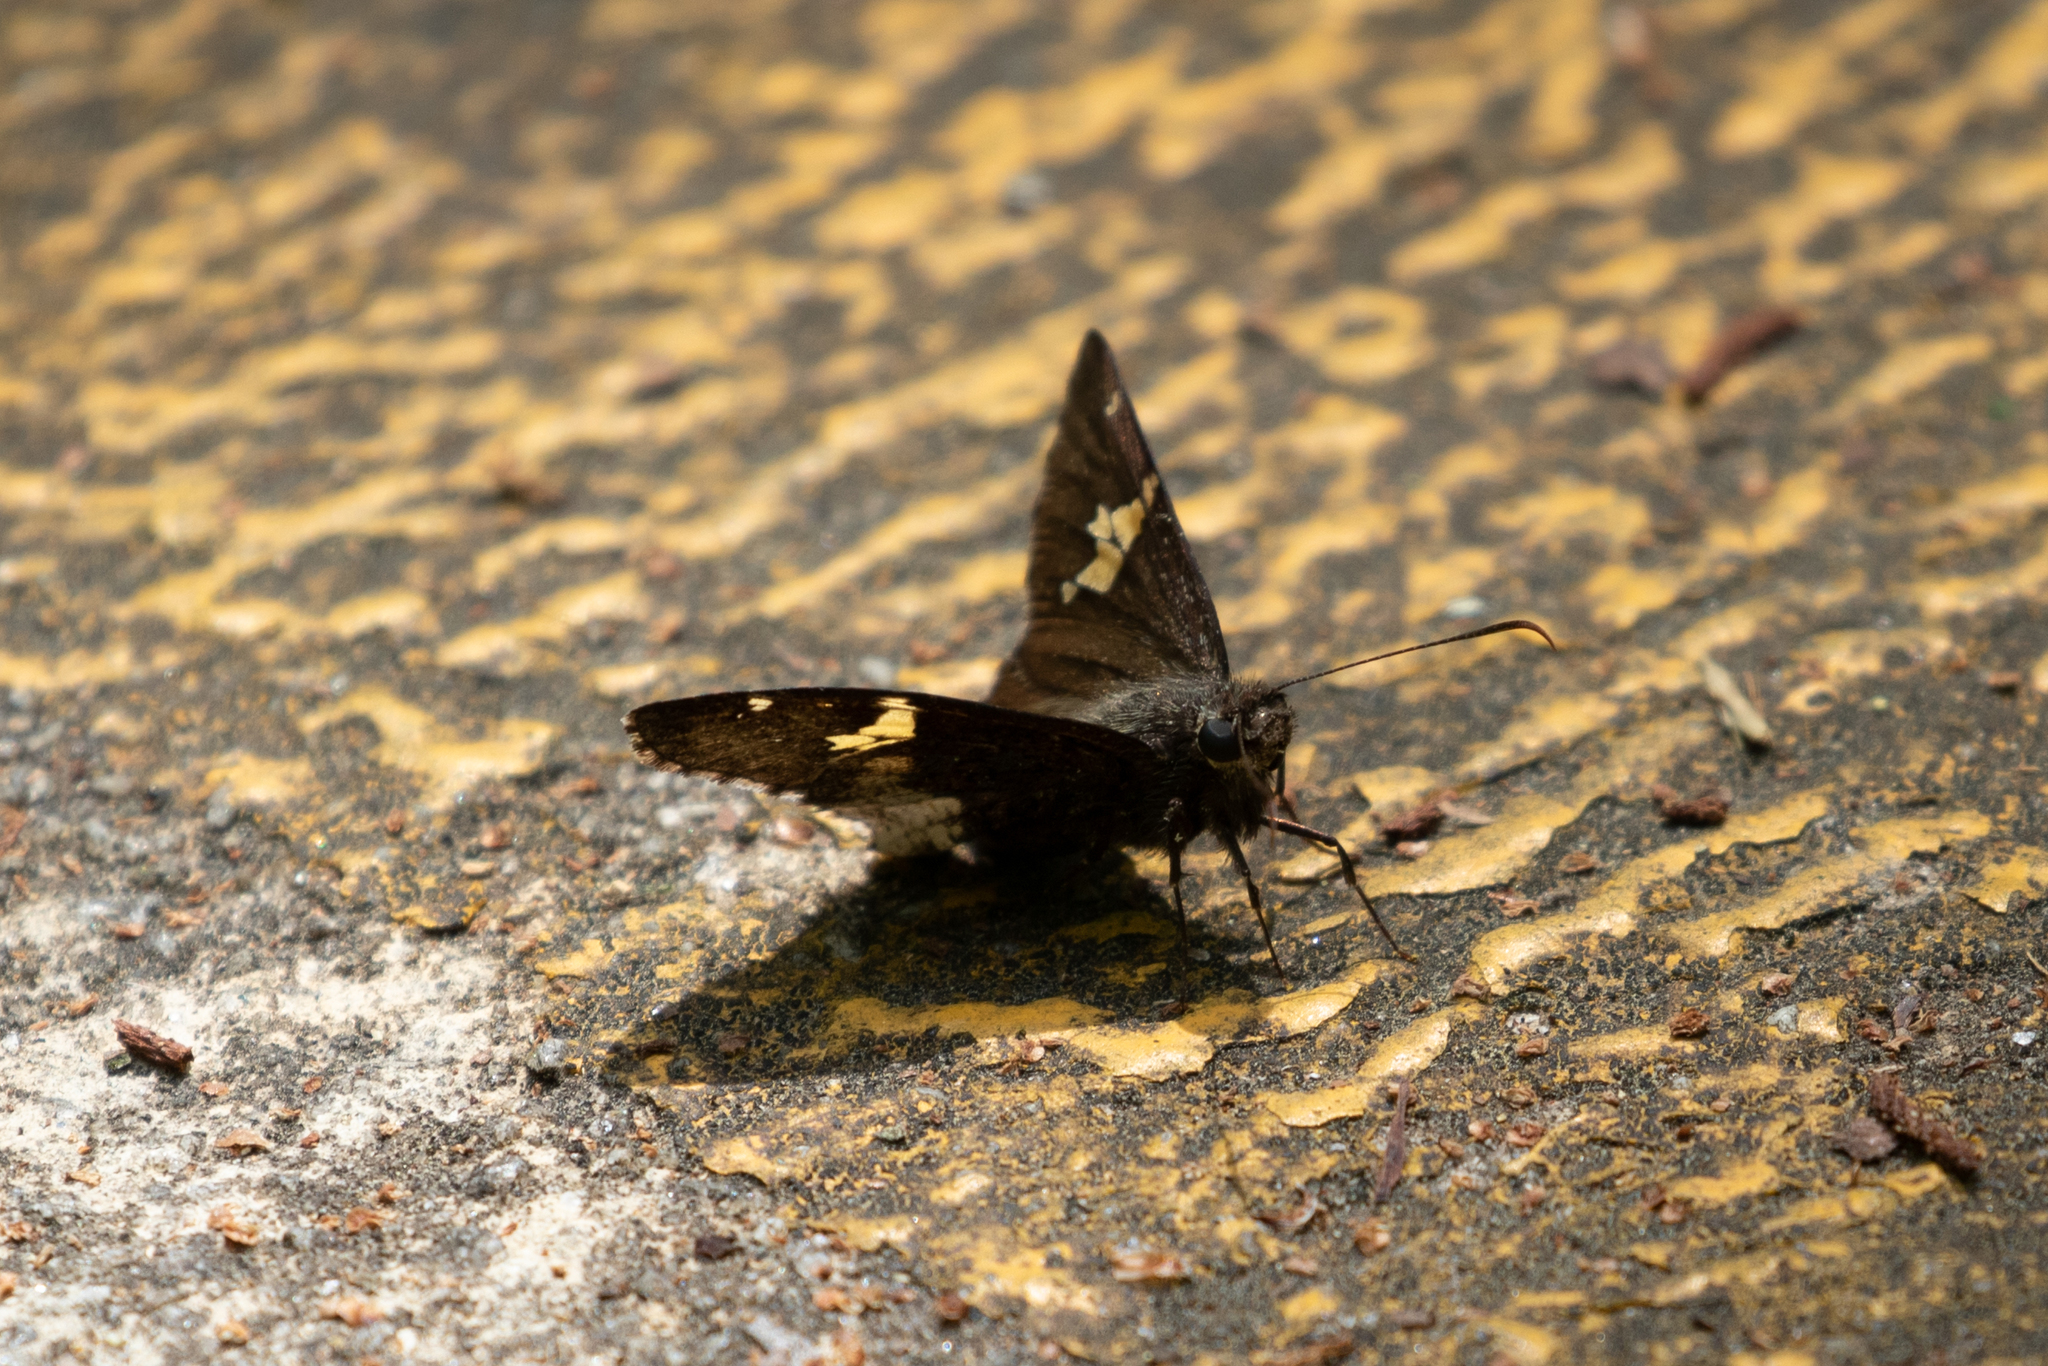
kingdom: Animalia
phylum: Arthropoda
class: Insecta
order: Lepidoptera
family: Hesperiidae
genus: Epargyreus
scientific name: Epargyreus clarus
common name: Silver-spotted skipper
